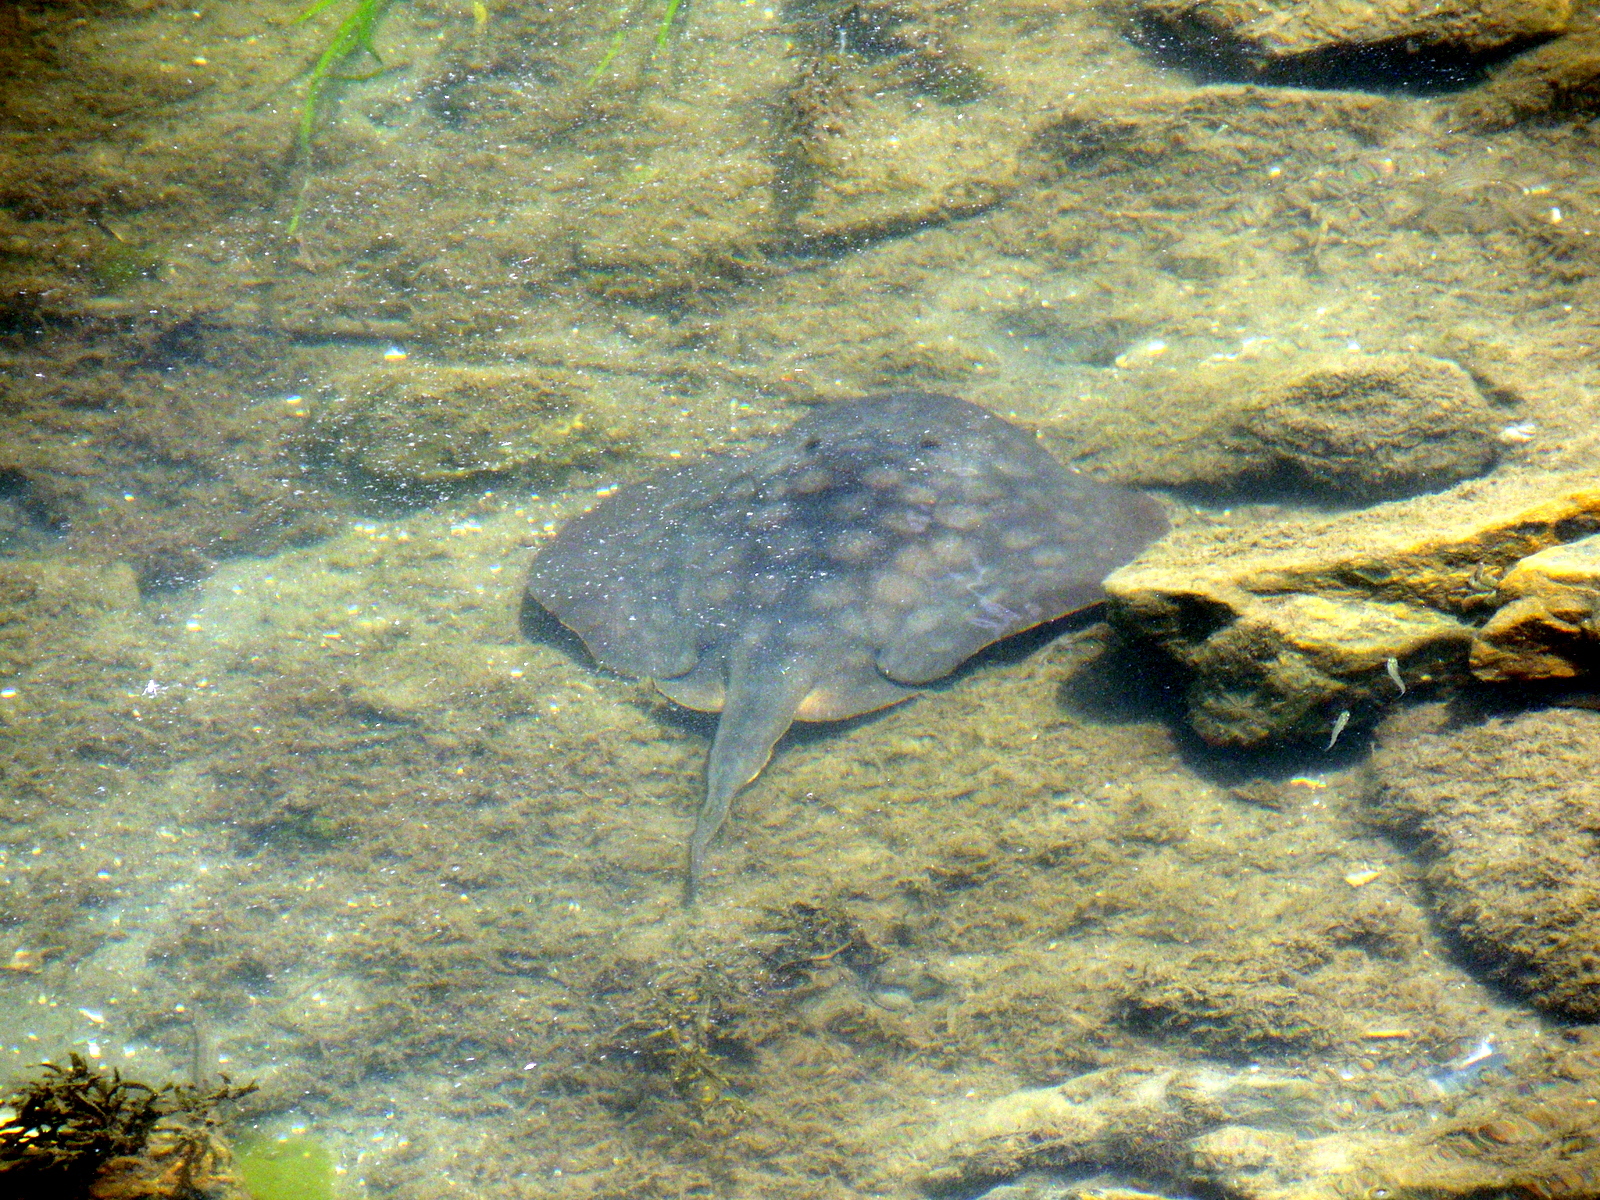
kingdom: Animalia
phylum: Chordata
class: Elasmobranchii
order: Myliobatiformes
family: Urolophidae
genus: Urolophus
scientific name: Urolophus halleri
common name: Round stingray
